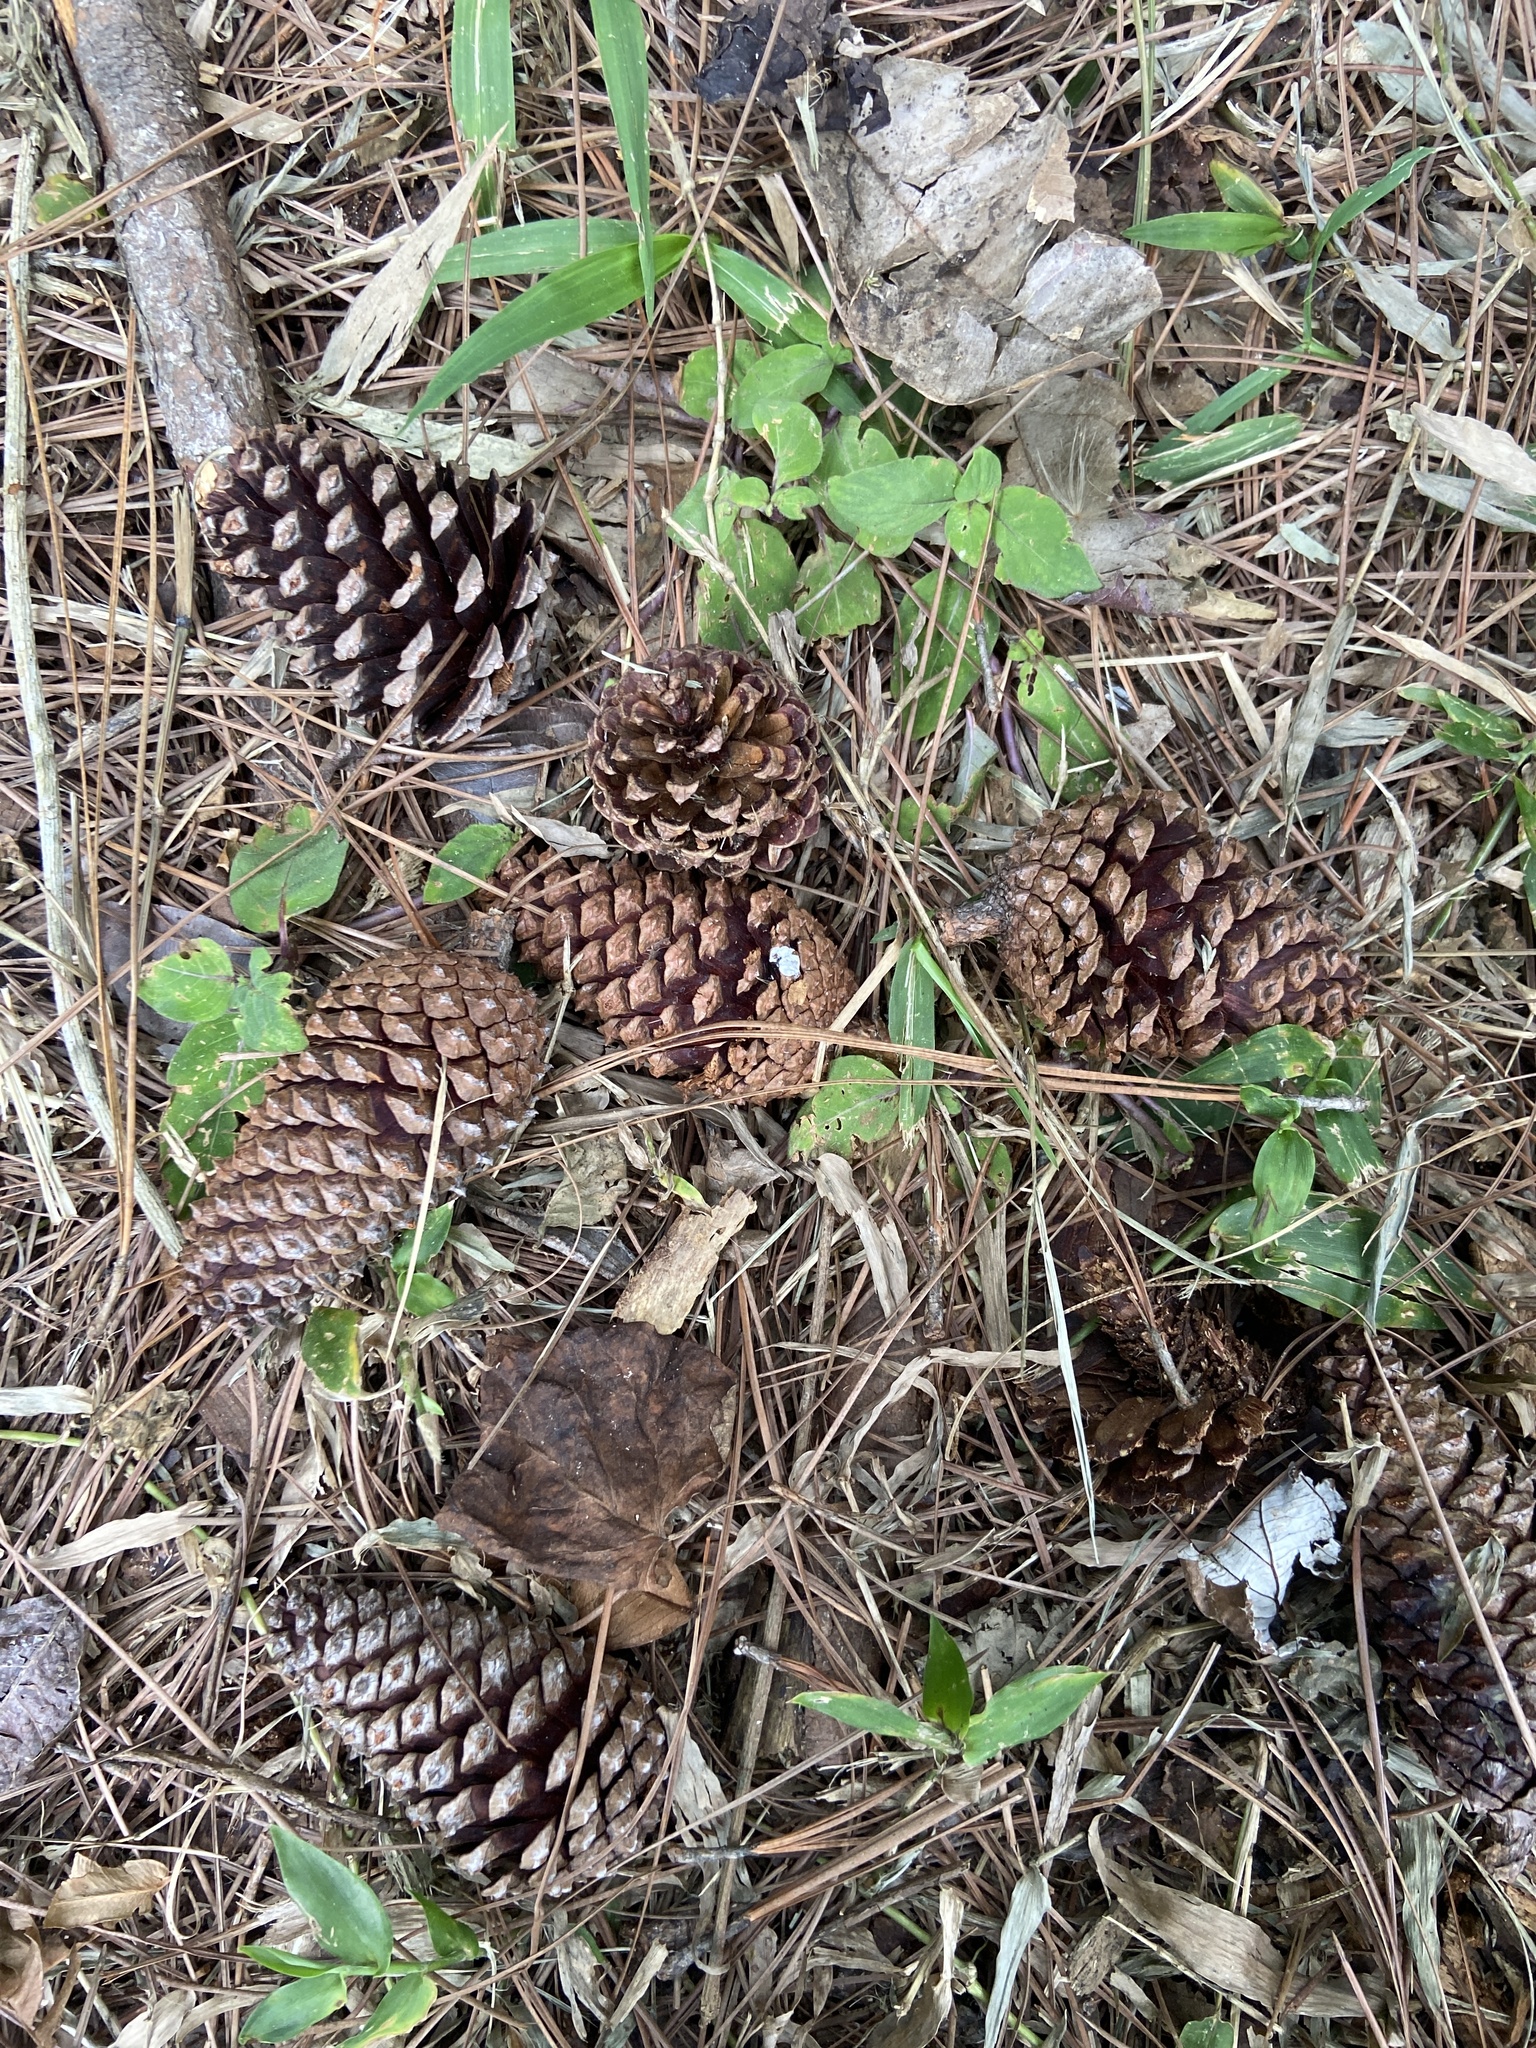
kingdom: Plantae
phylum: Tracheophyta
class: Pinopsida
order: Pinales
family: Pinaceae
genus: Pinus
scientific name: Pinus caribaea
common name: Caribbean pine
